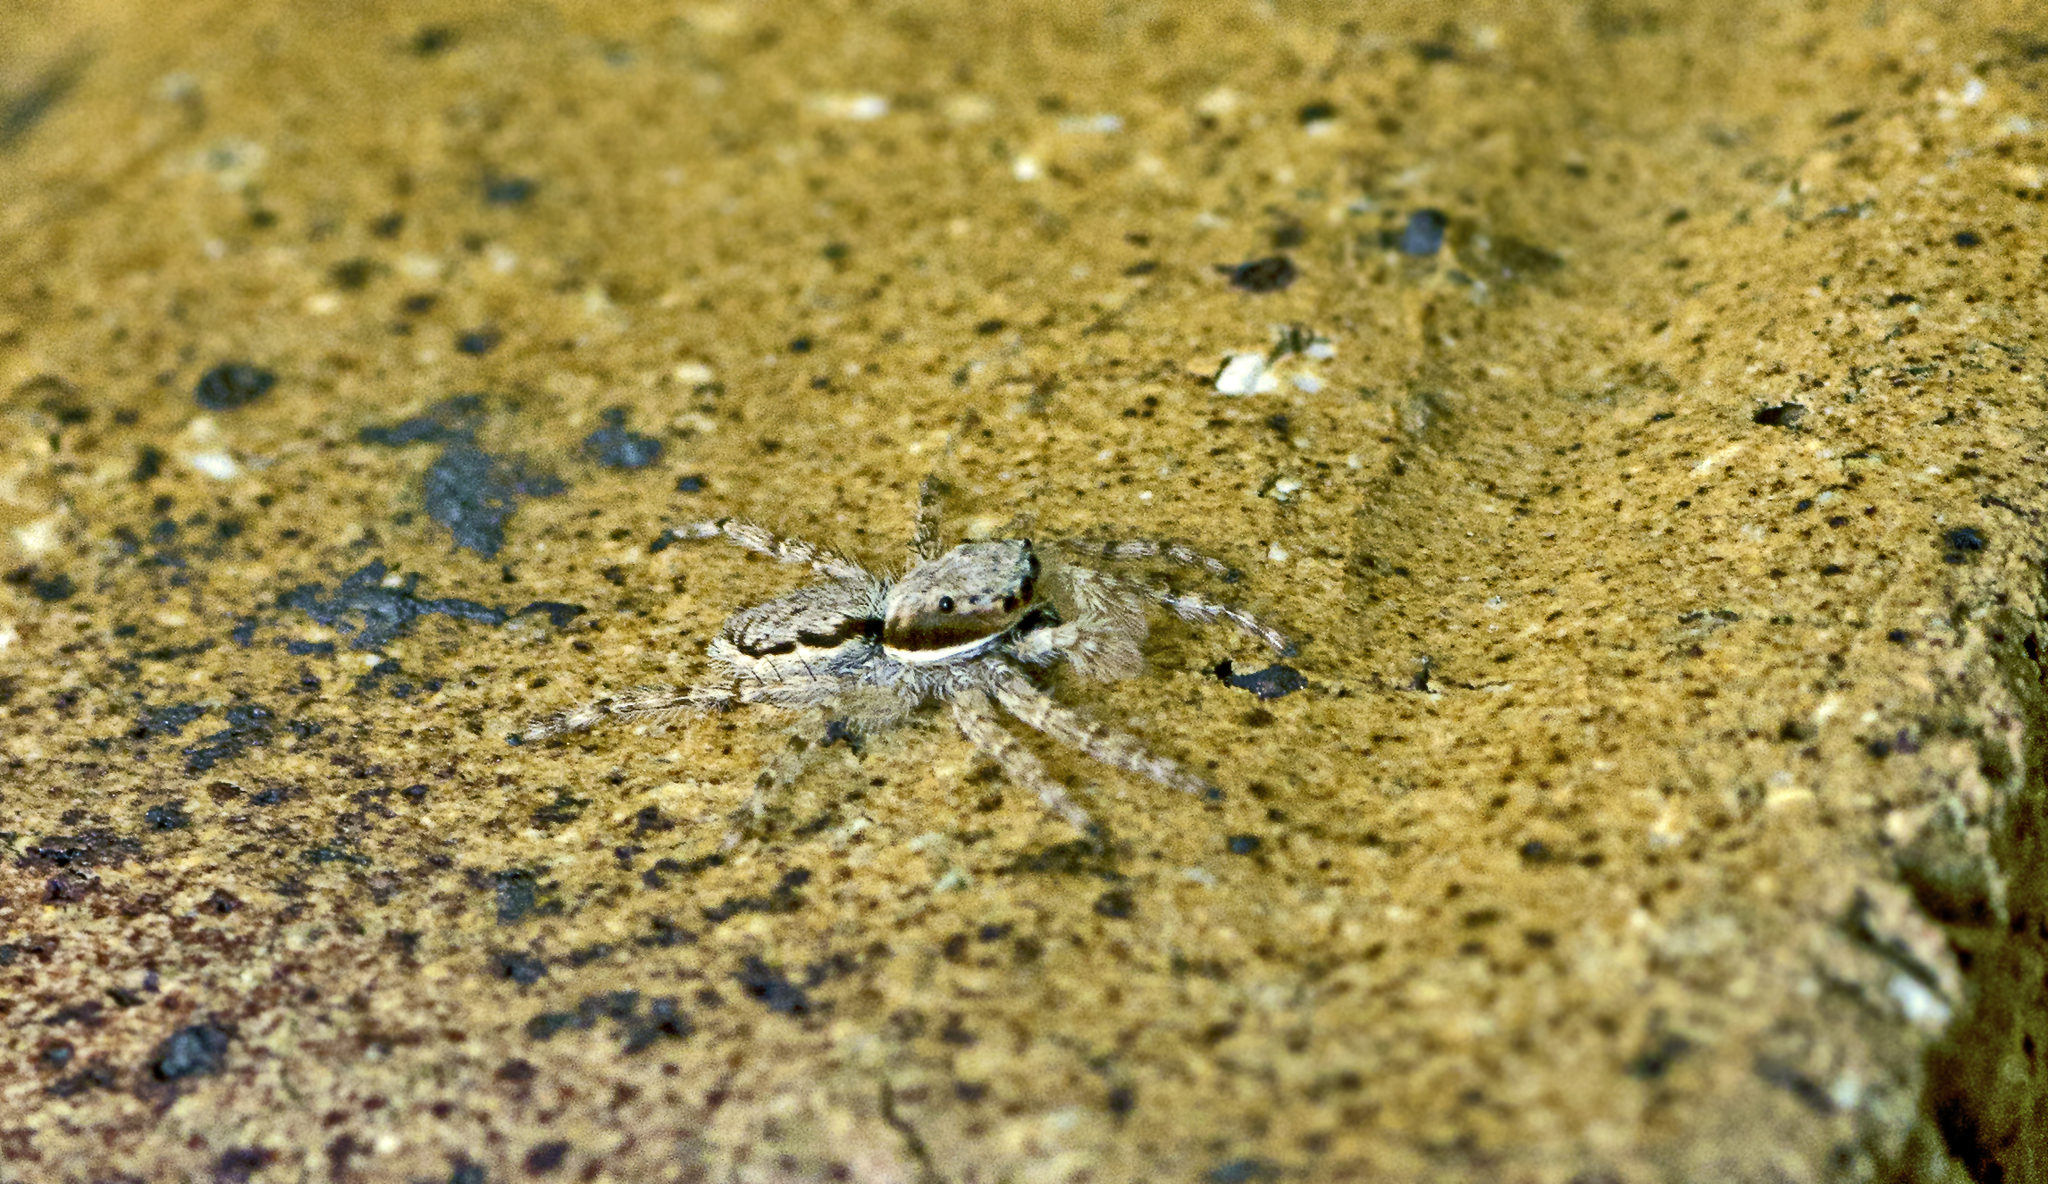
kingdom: Animalia
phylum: Arthropoda
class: Arachnida
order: Araneae
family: Salticidae
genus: Menemerus
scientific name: Menemerus bivittatus
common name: Gray wall jumper
